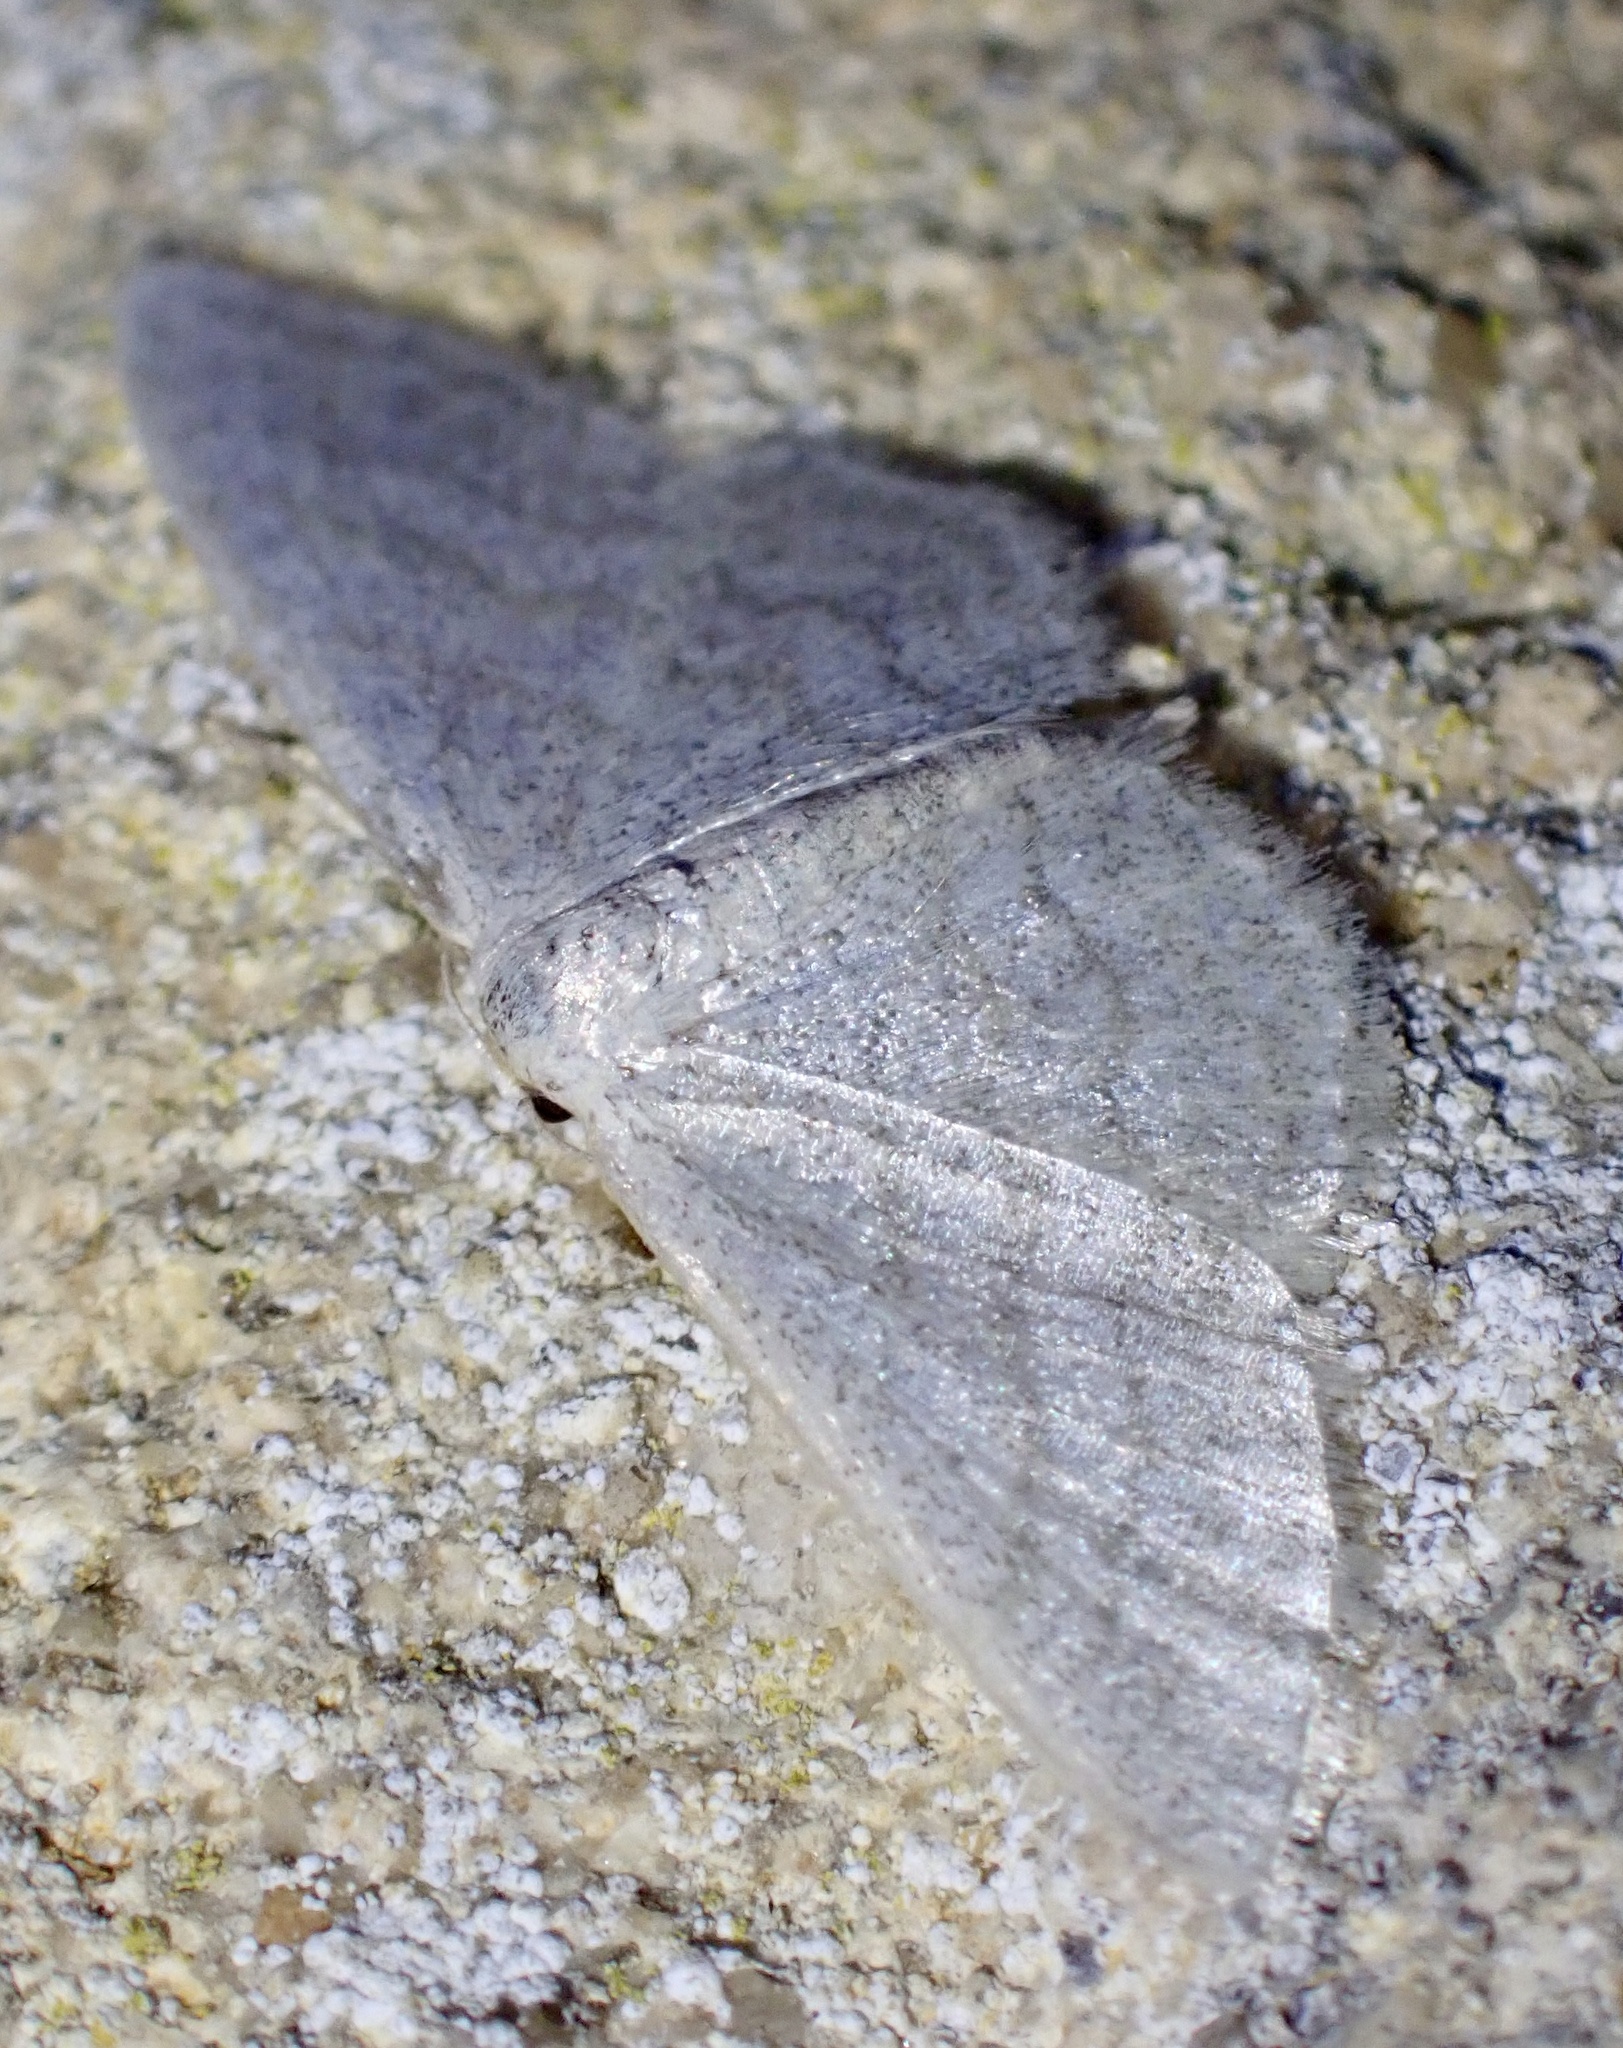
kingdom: Animalia
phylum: Arthropoda
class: Insecta
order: Lepidoptera
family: Geometridae
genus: Idaea
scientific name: Idaea subsericeata
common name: Satin wave
